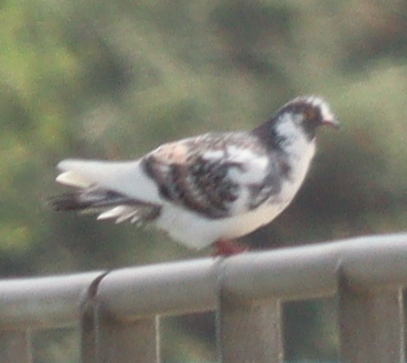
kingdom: Animalia
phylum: Chordata
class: Aves
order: Columbiformes
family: Columbidae
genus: Columba
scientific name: Columba livia
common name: Rock pigeon
